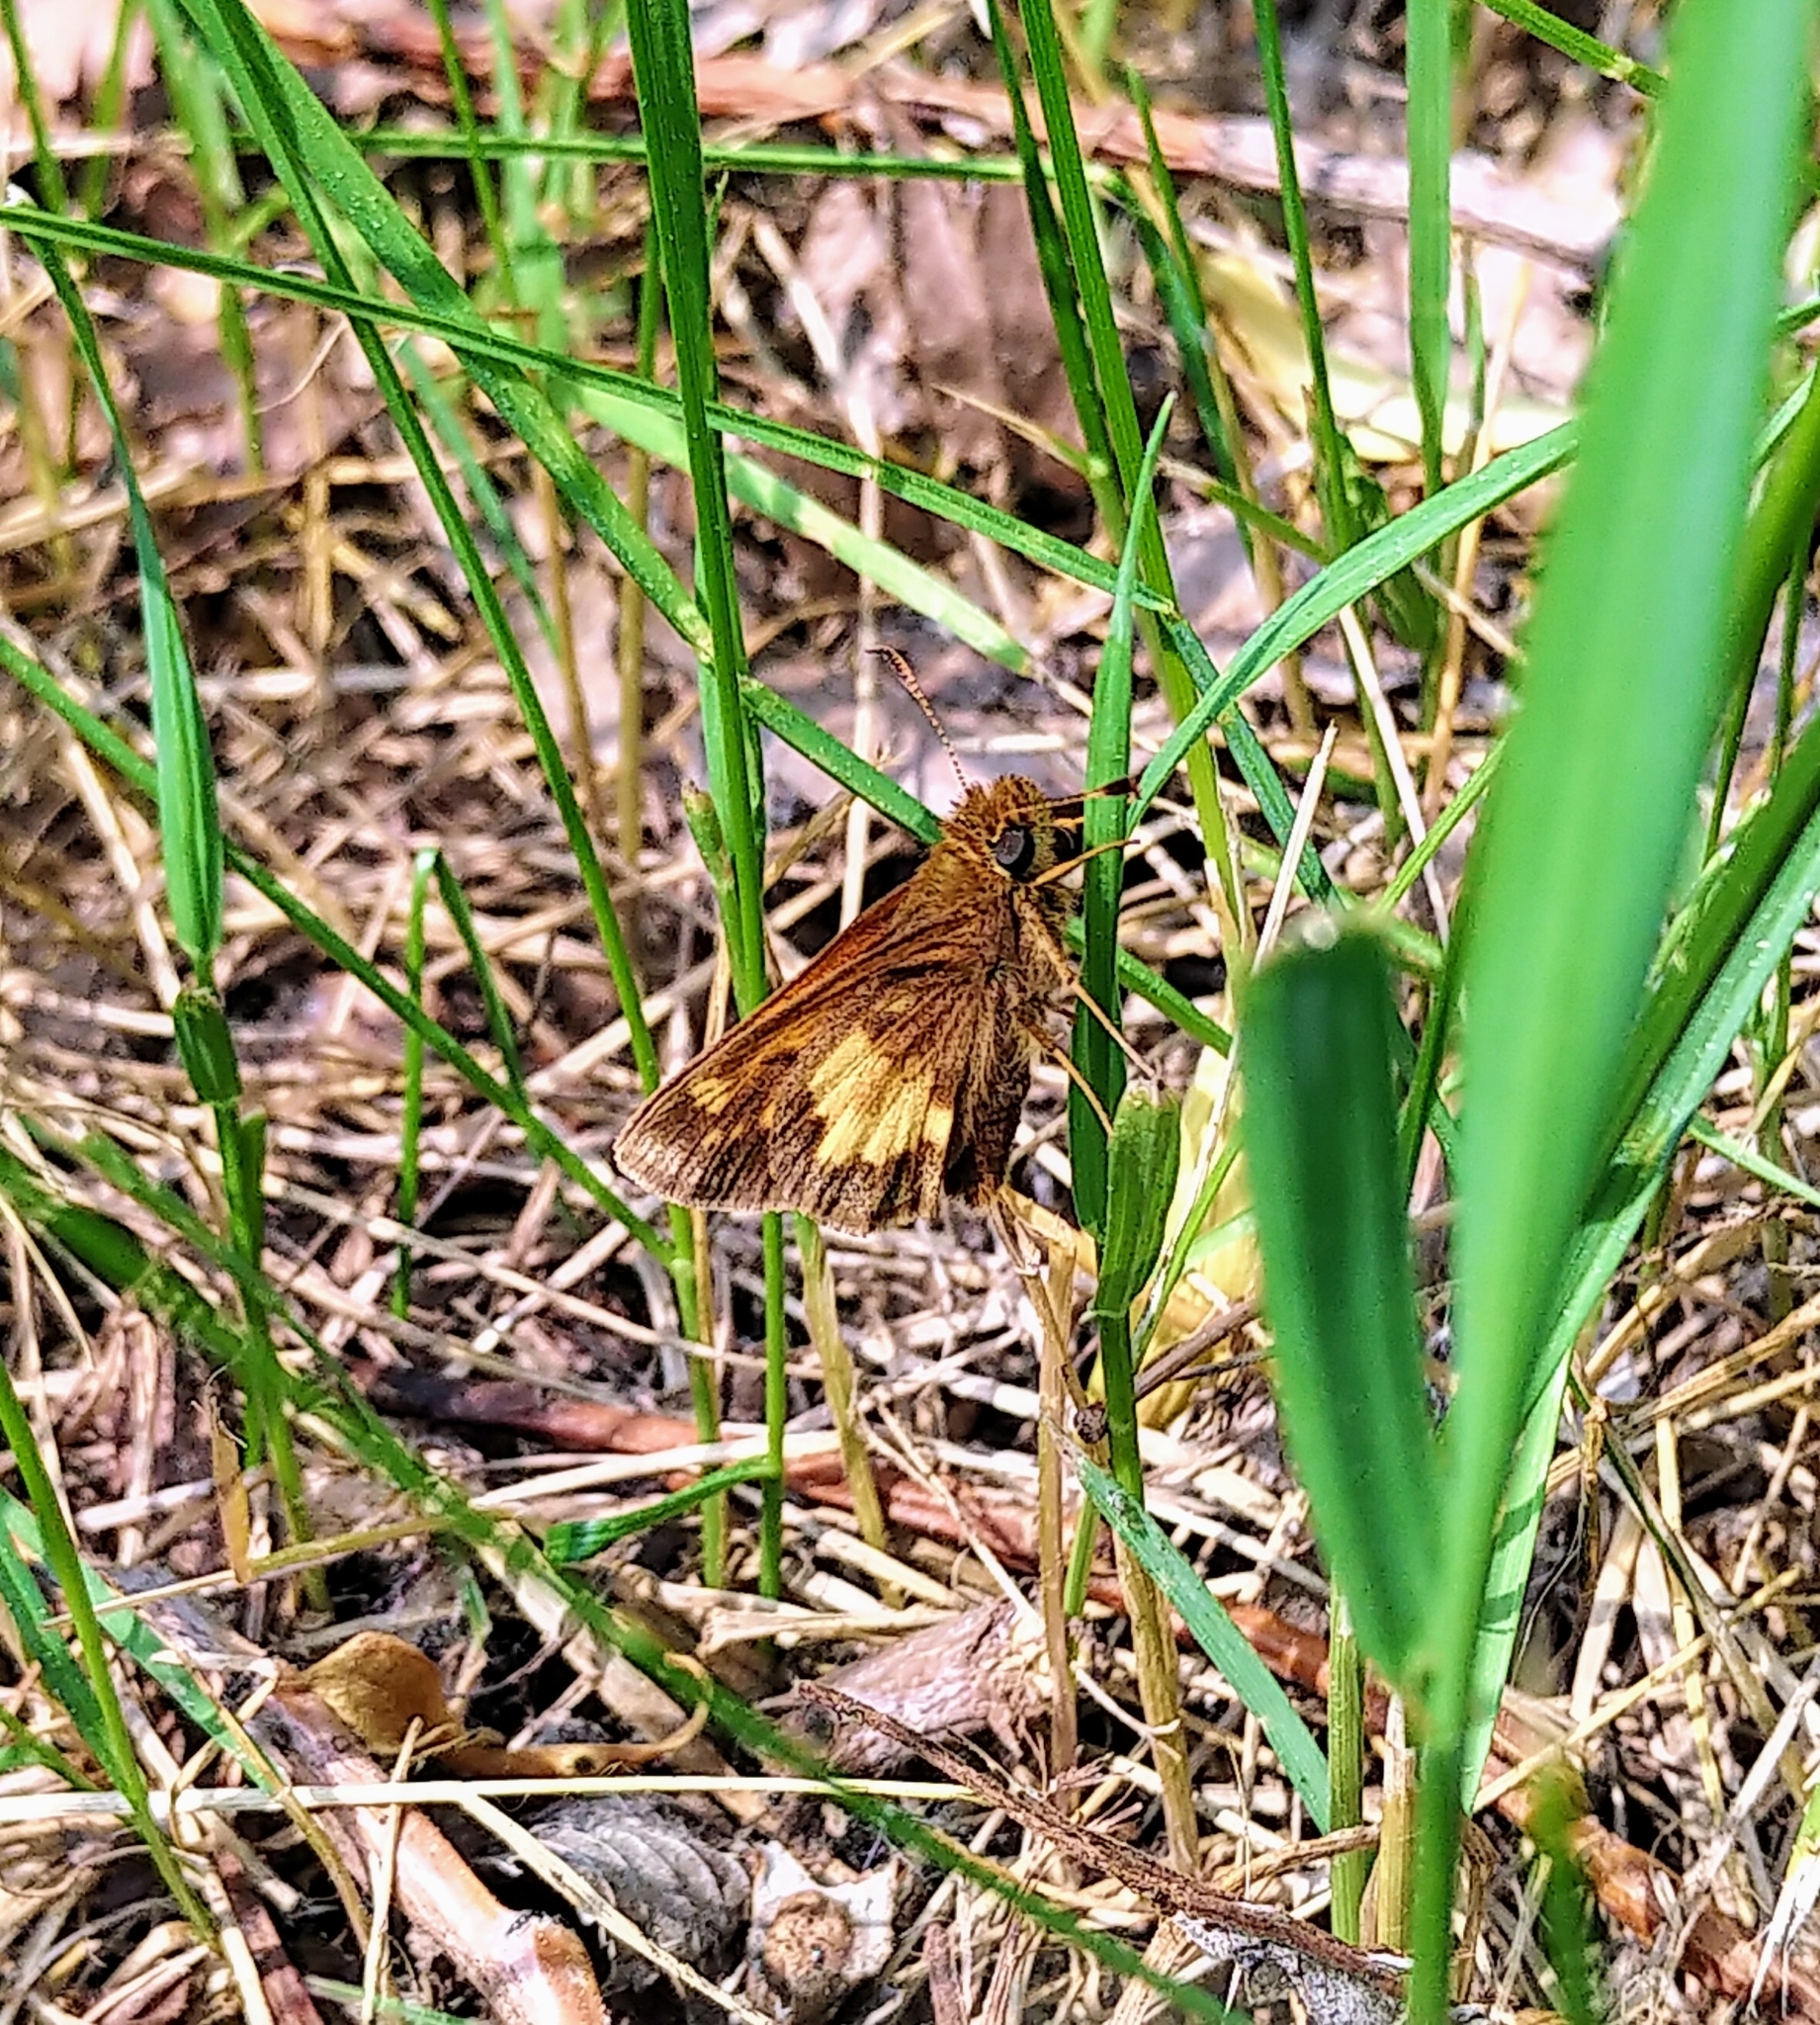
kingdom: Animalia
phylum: Arthropoda
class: Insecta
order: Lepidoptera
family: Hesperiidae
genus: Lon
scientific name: Lon hobomok
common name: Hobomok skipper
